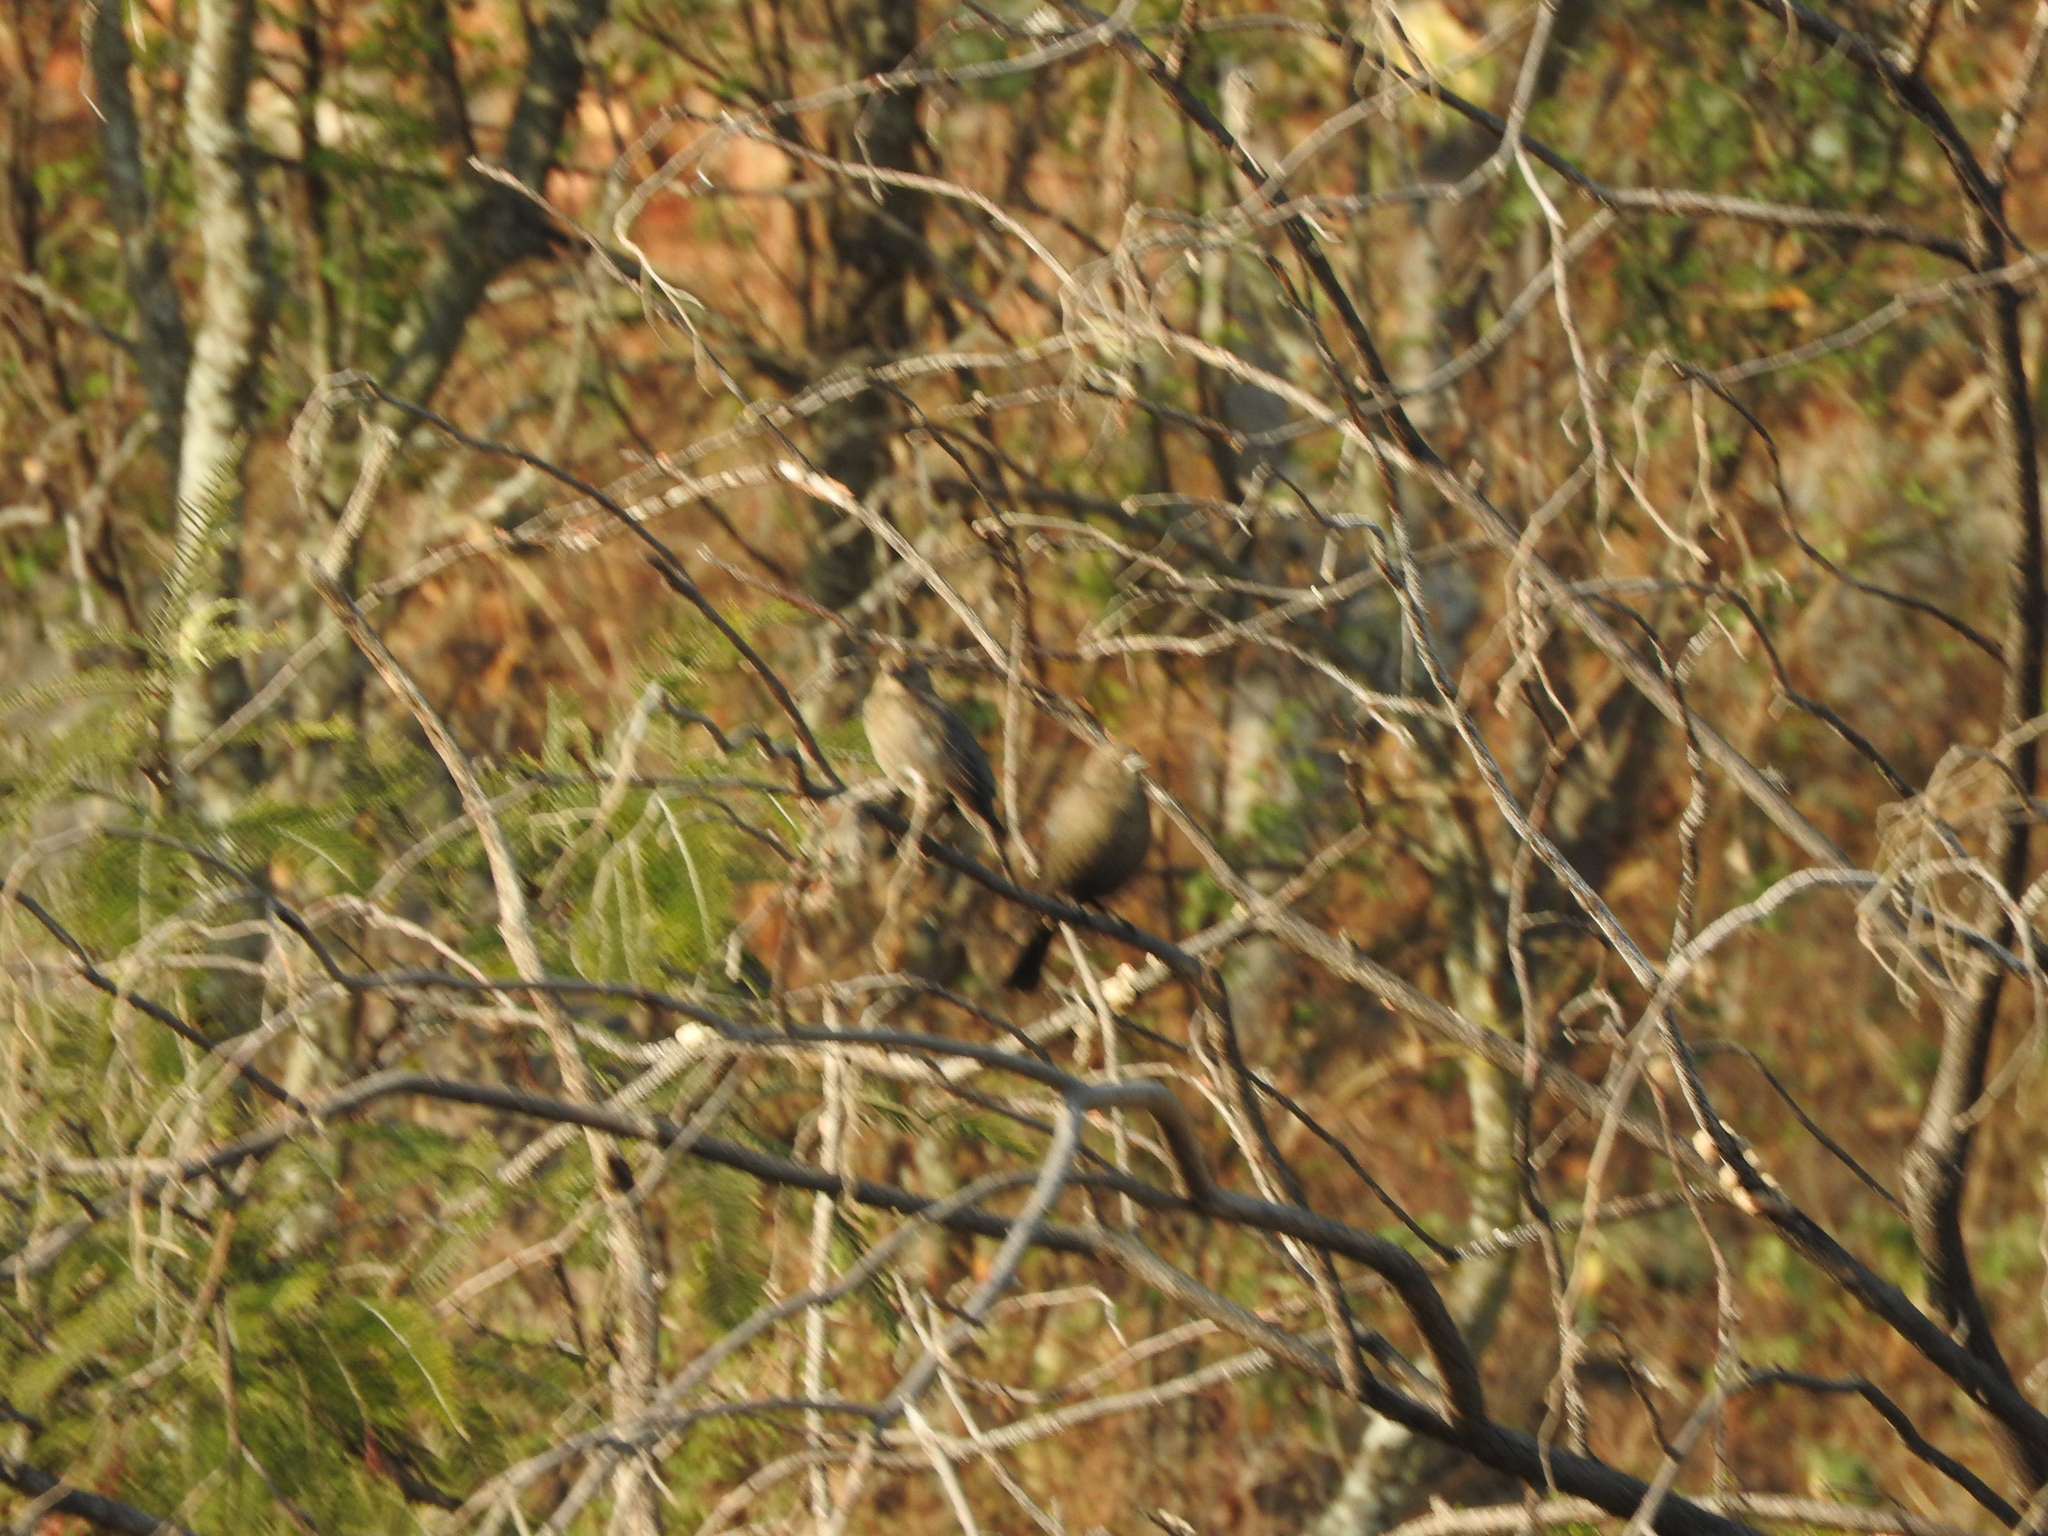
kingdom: Animalia
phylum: Chordata
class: Aves
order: Passeriformes
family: Icteridae
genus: Molothrus
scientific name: Molothrus ater
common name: Brown-headed cowbird
